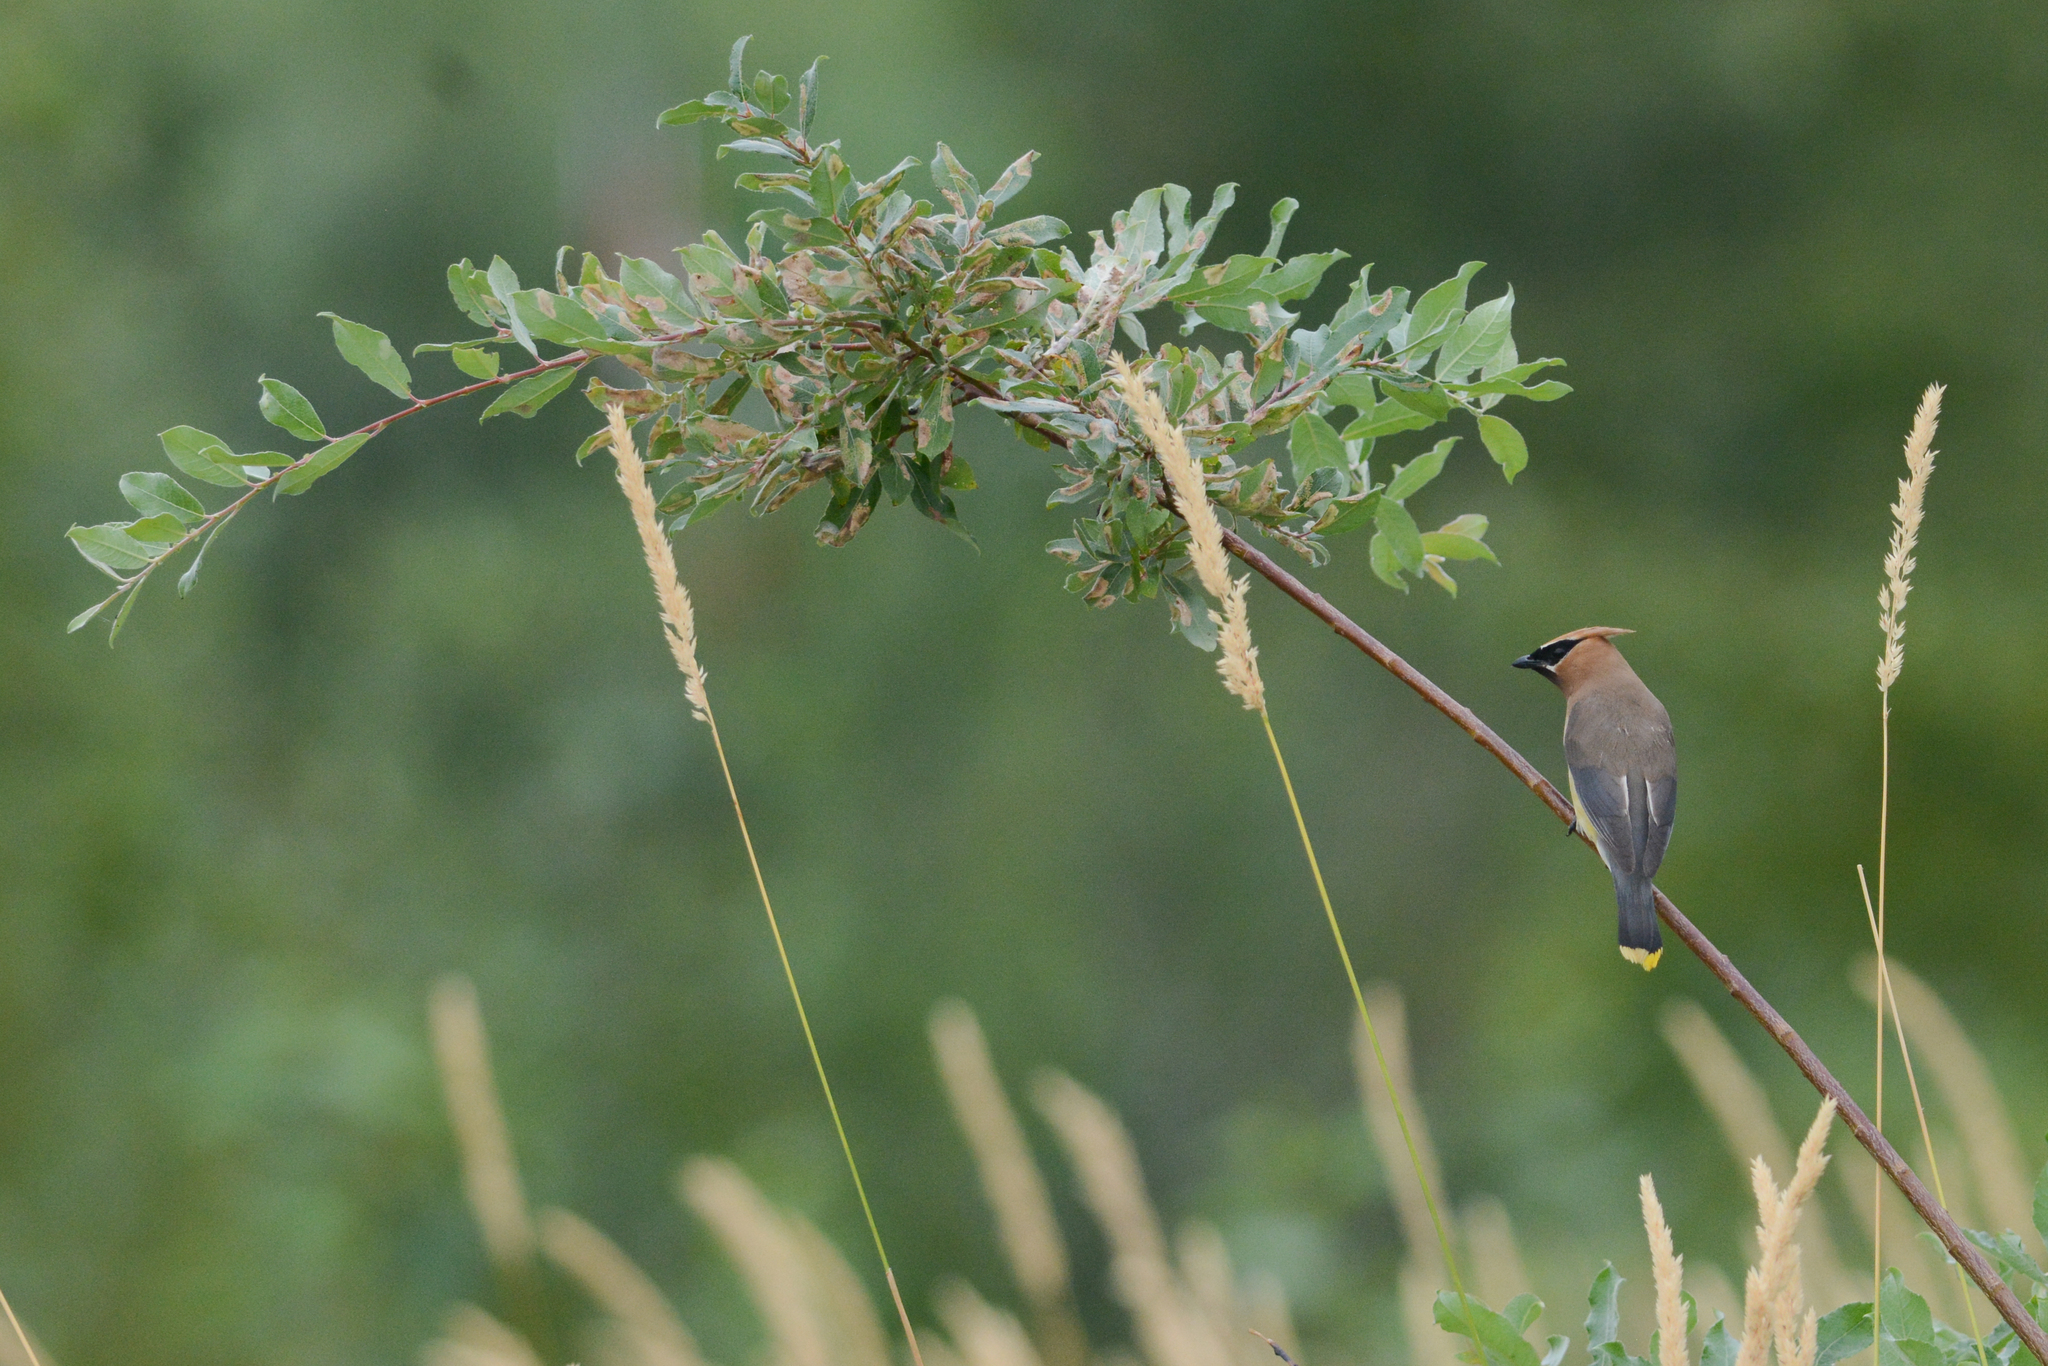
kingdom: Animalia
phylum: Chordata
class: Aves
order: Passeriformes
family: Bombycillidae
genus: Bombycilla
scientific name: Bombycilla cedrorum
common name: Cedar waxwing
